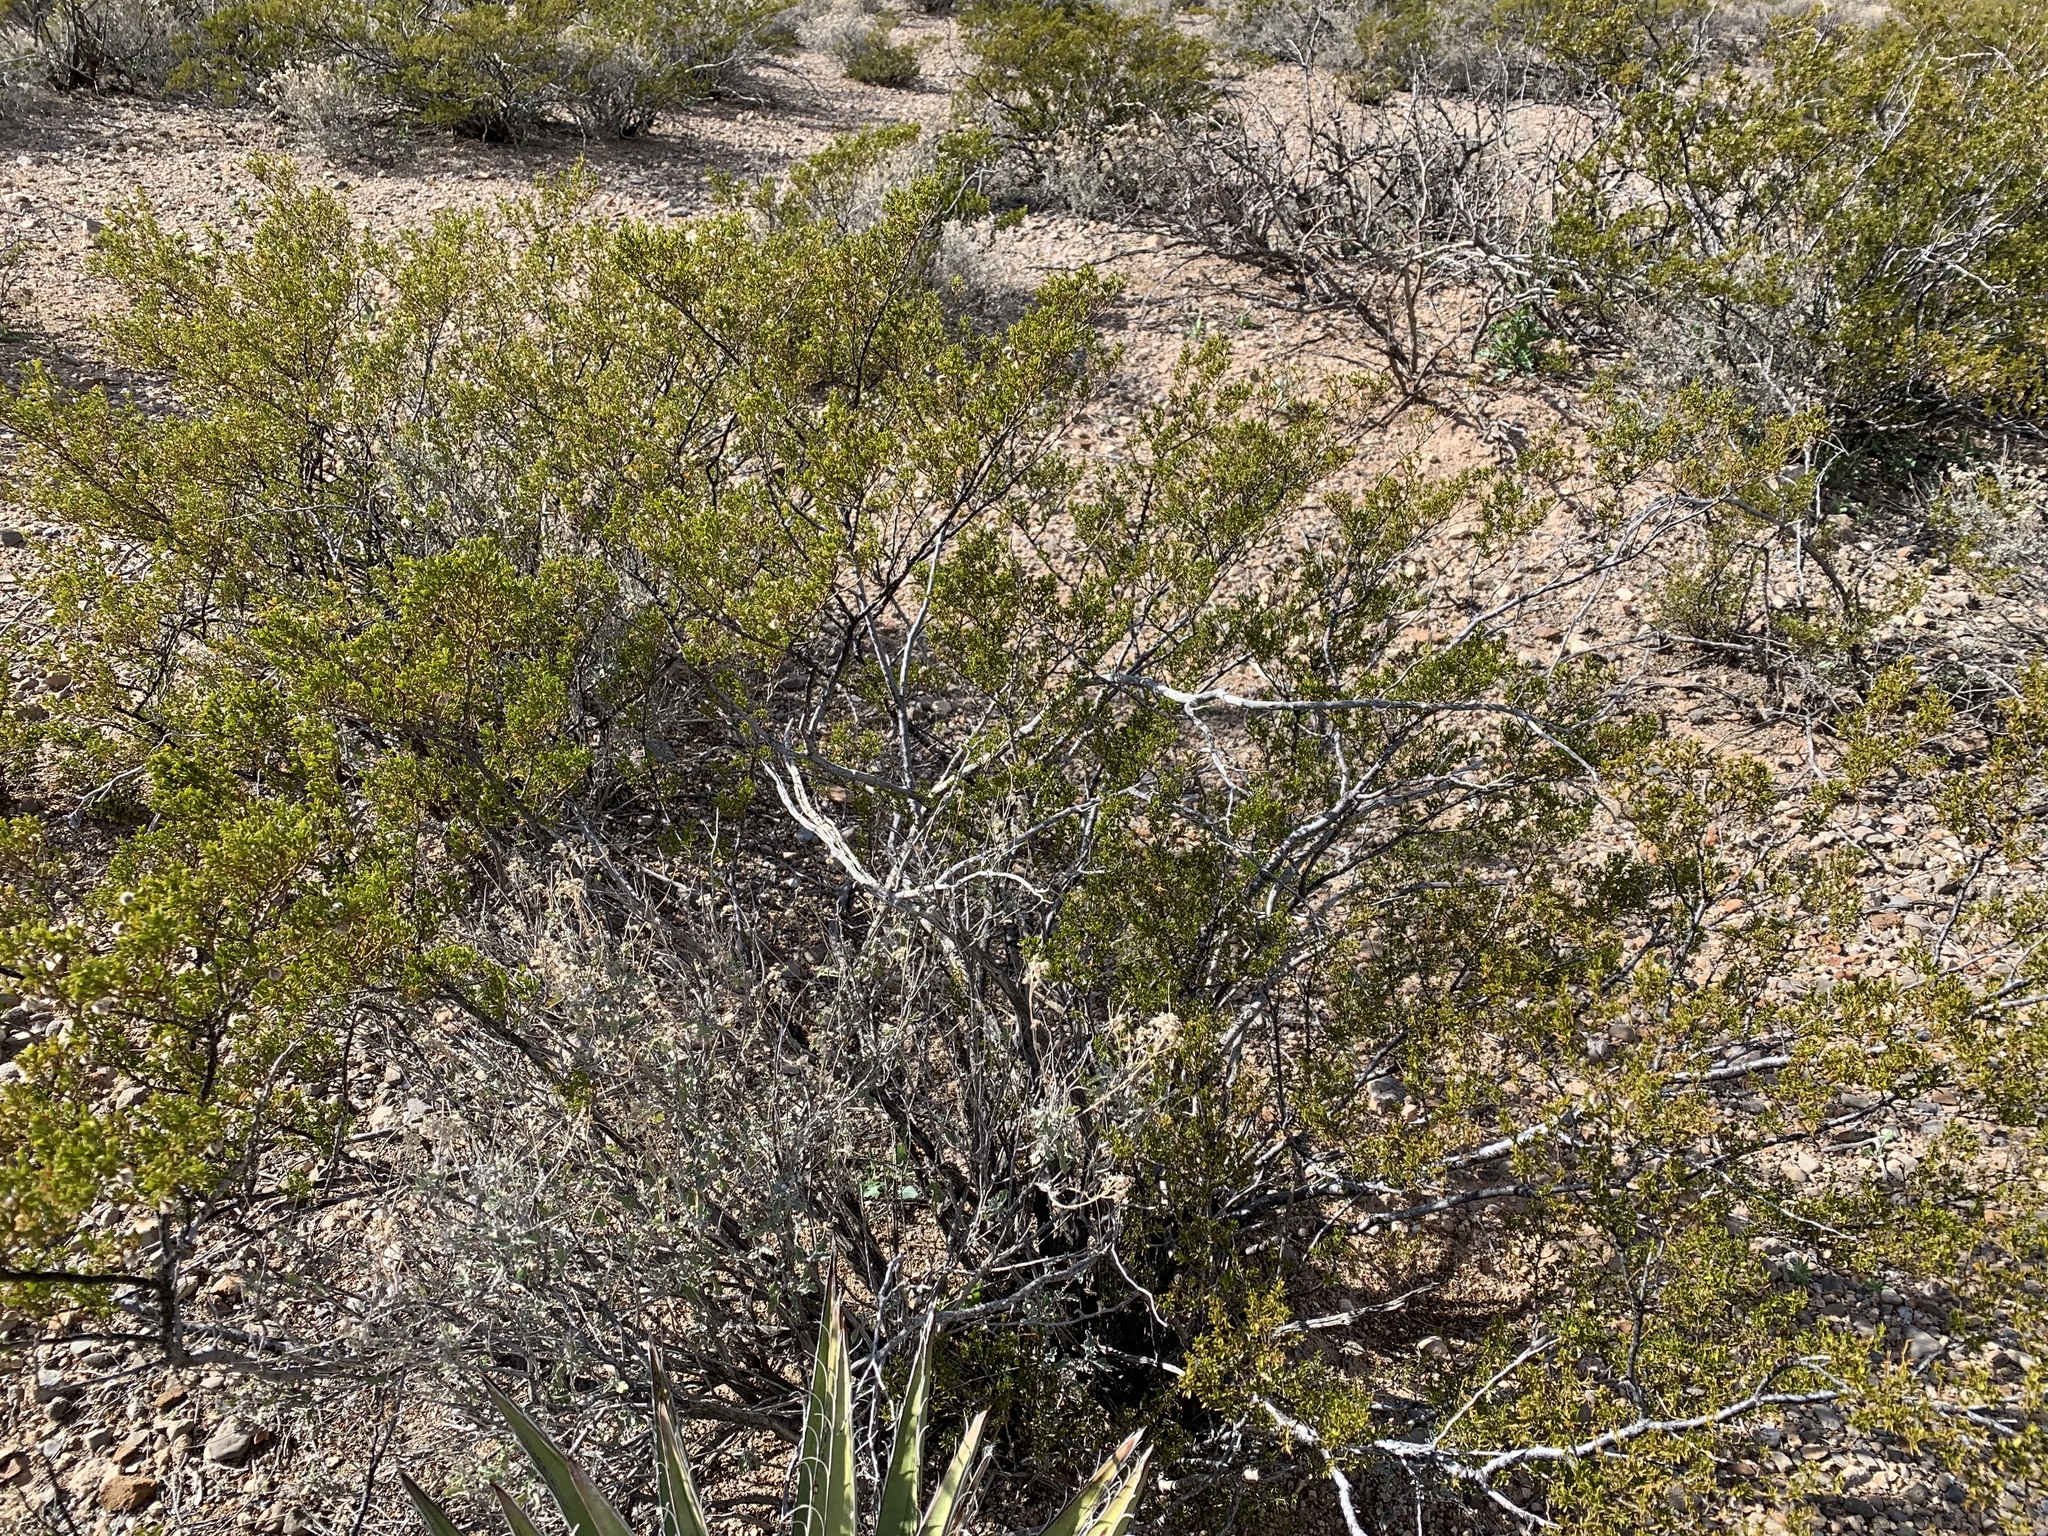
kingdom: Plantae
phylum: Tracheophyta
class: Magnoliopsida
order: Zygophyllales
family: Zygophyllaceae
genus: Larrea
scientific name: Larrea tridentata
